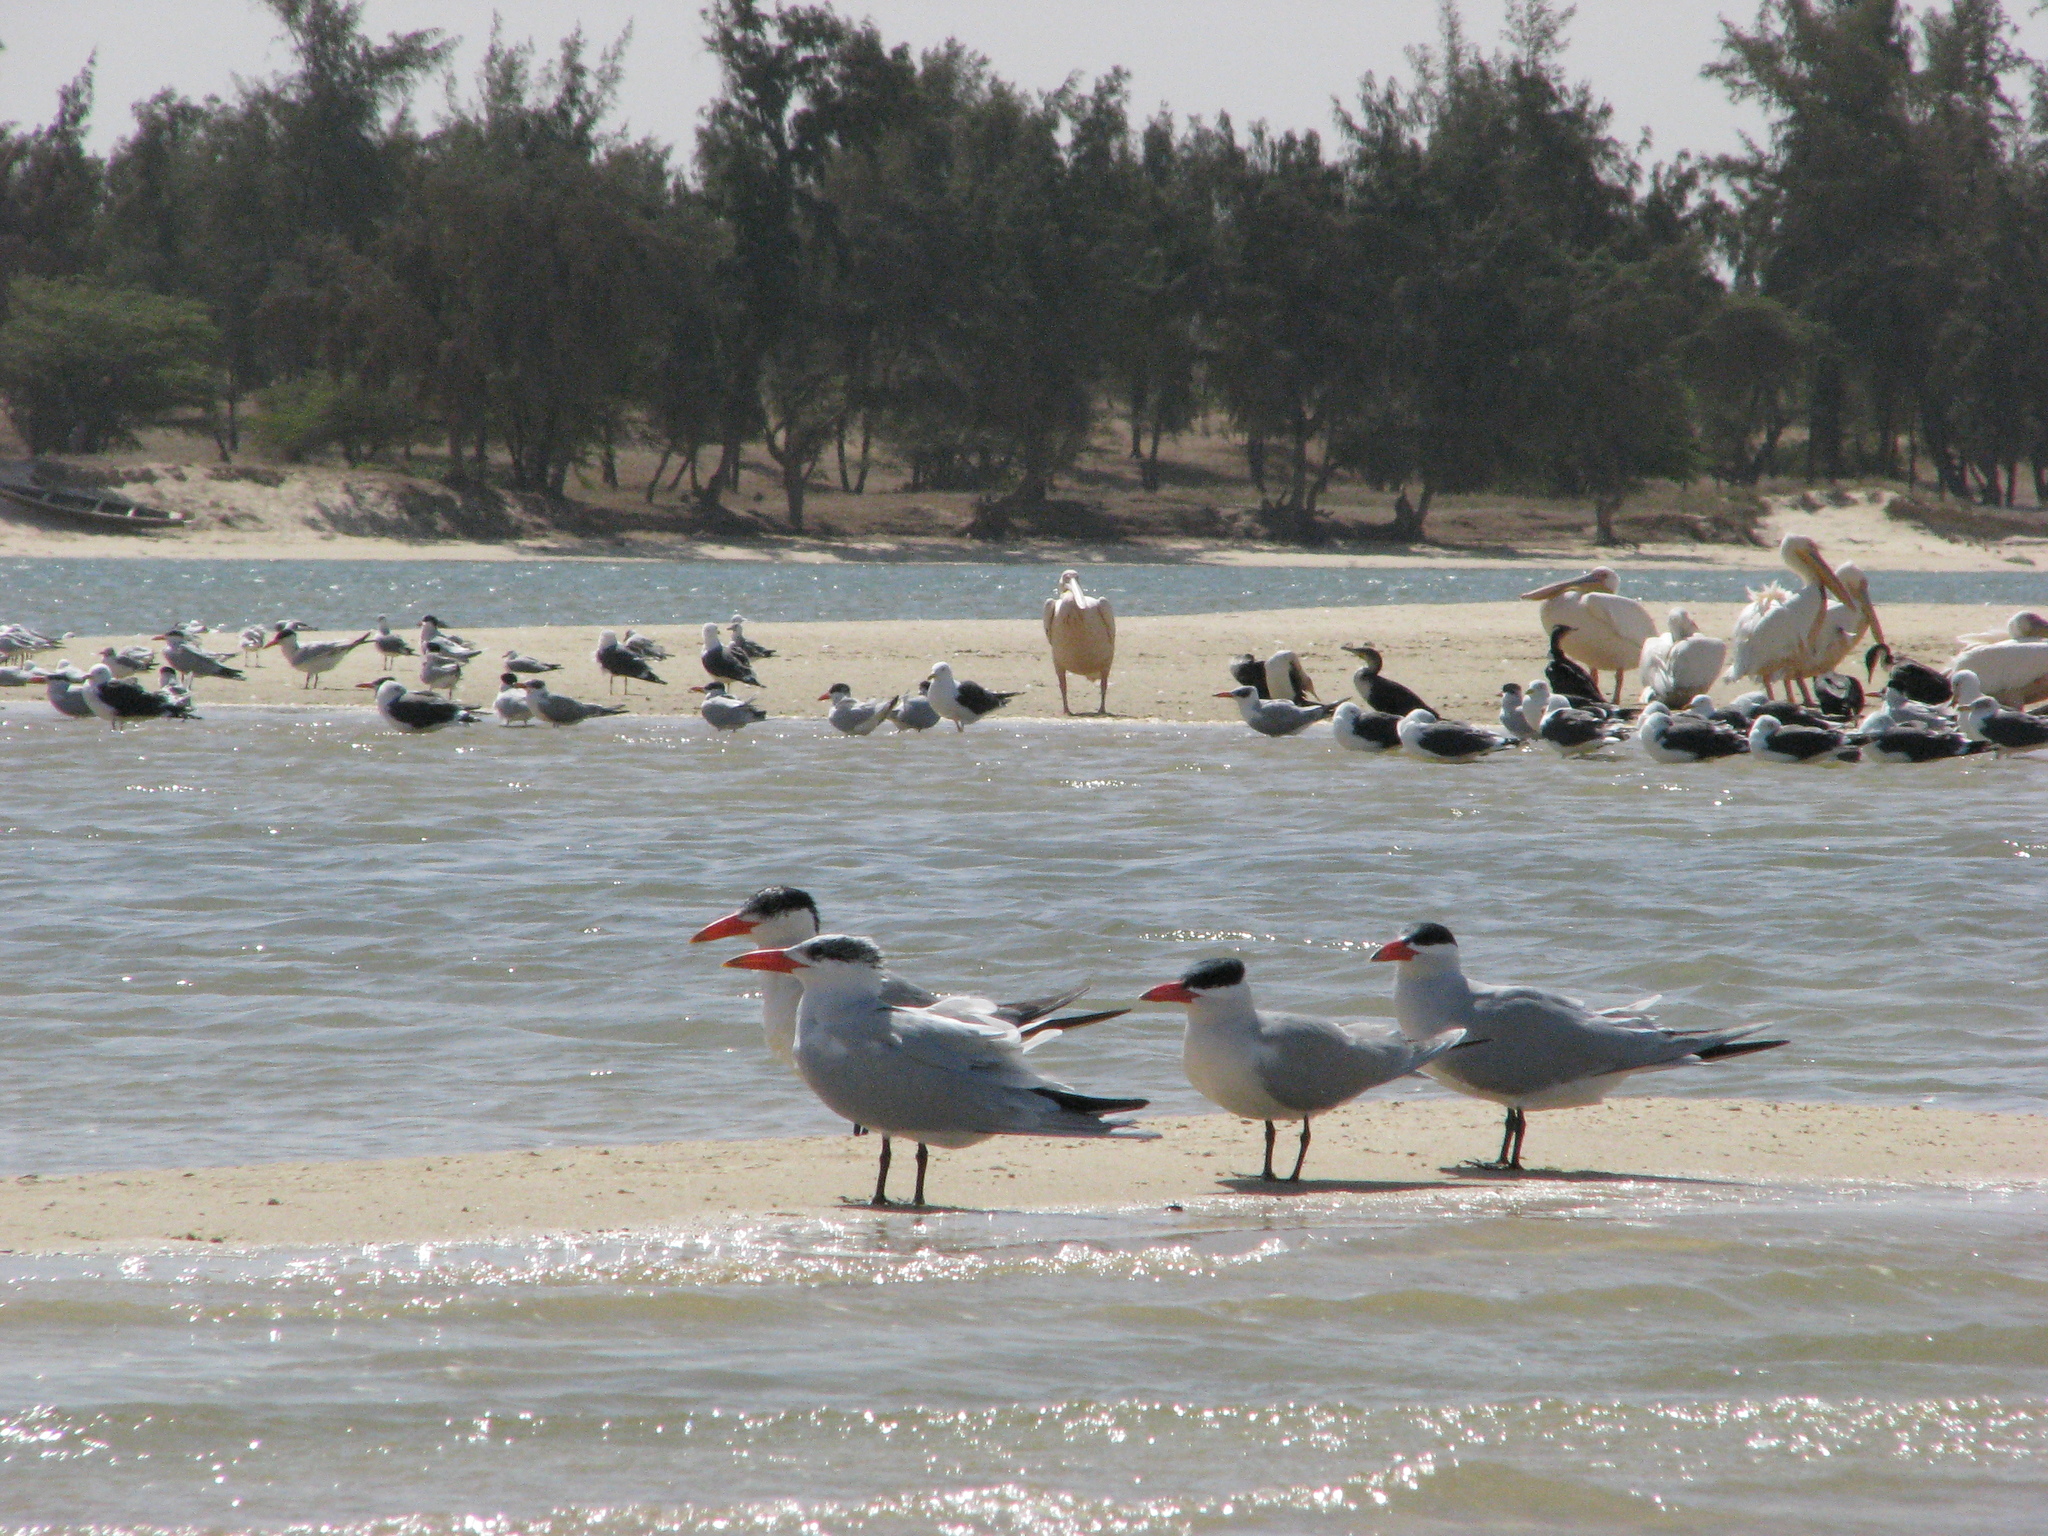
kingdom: Animalia
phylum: Chordata
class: Aves
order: Charadriiformes
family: Laridae
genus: Hydroprogne
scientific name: Hydroprogne caspia
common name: Caspian tern
